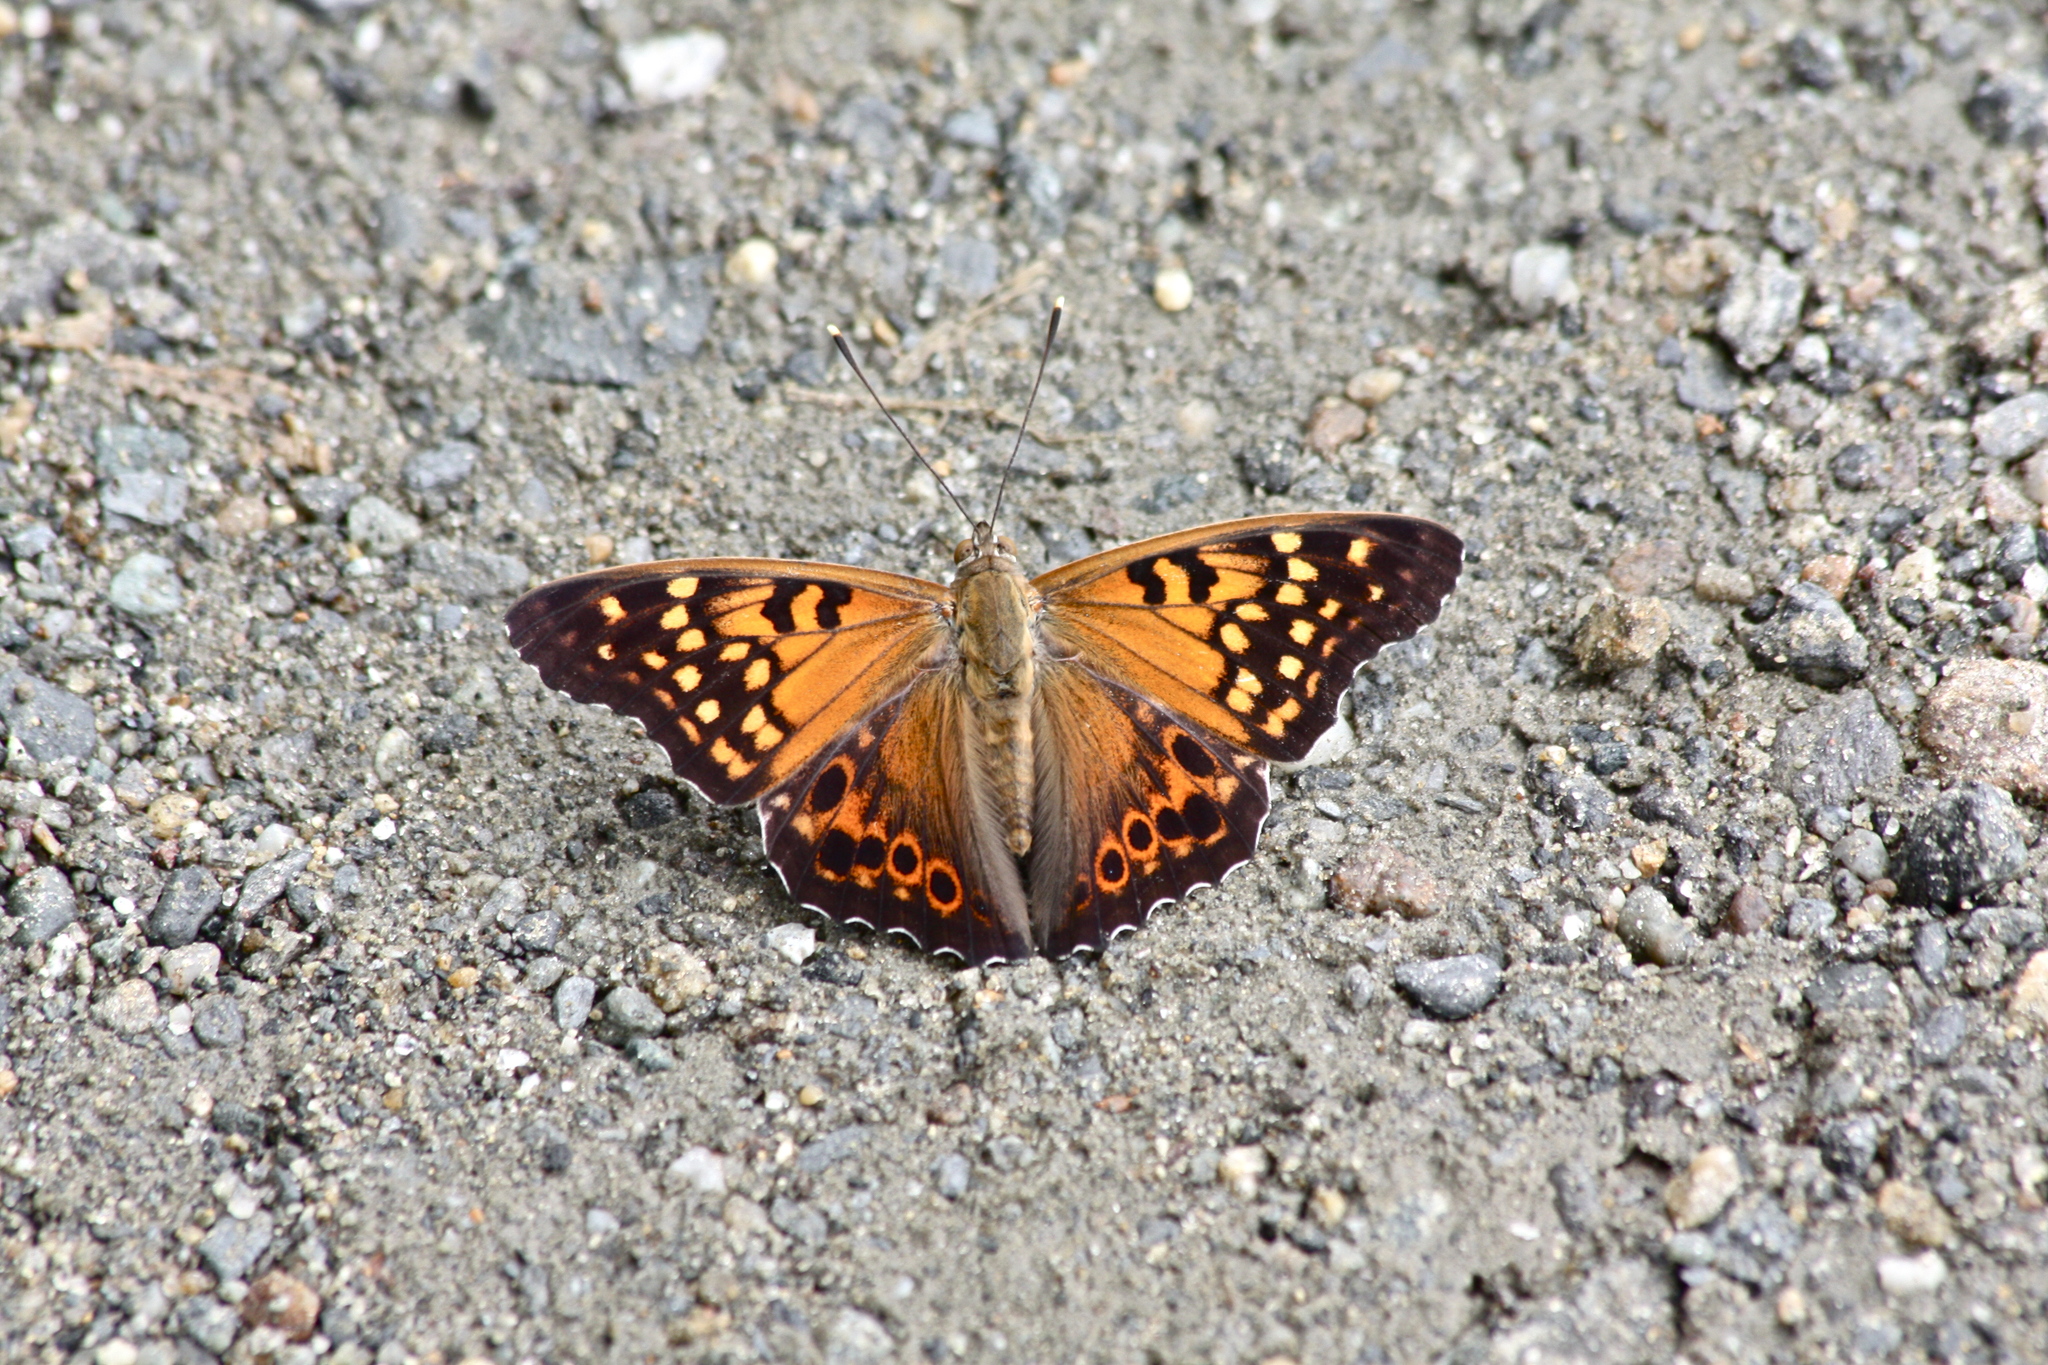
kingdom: Animalia
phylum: Arthropoda
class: Insecta
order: Lepidoptera
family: Nymphalidae
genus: Asterocampa
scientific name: Asterocampa clyton
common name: Tawny emperor
